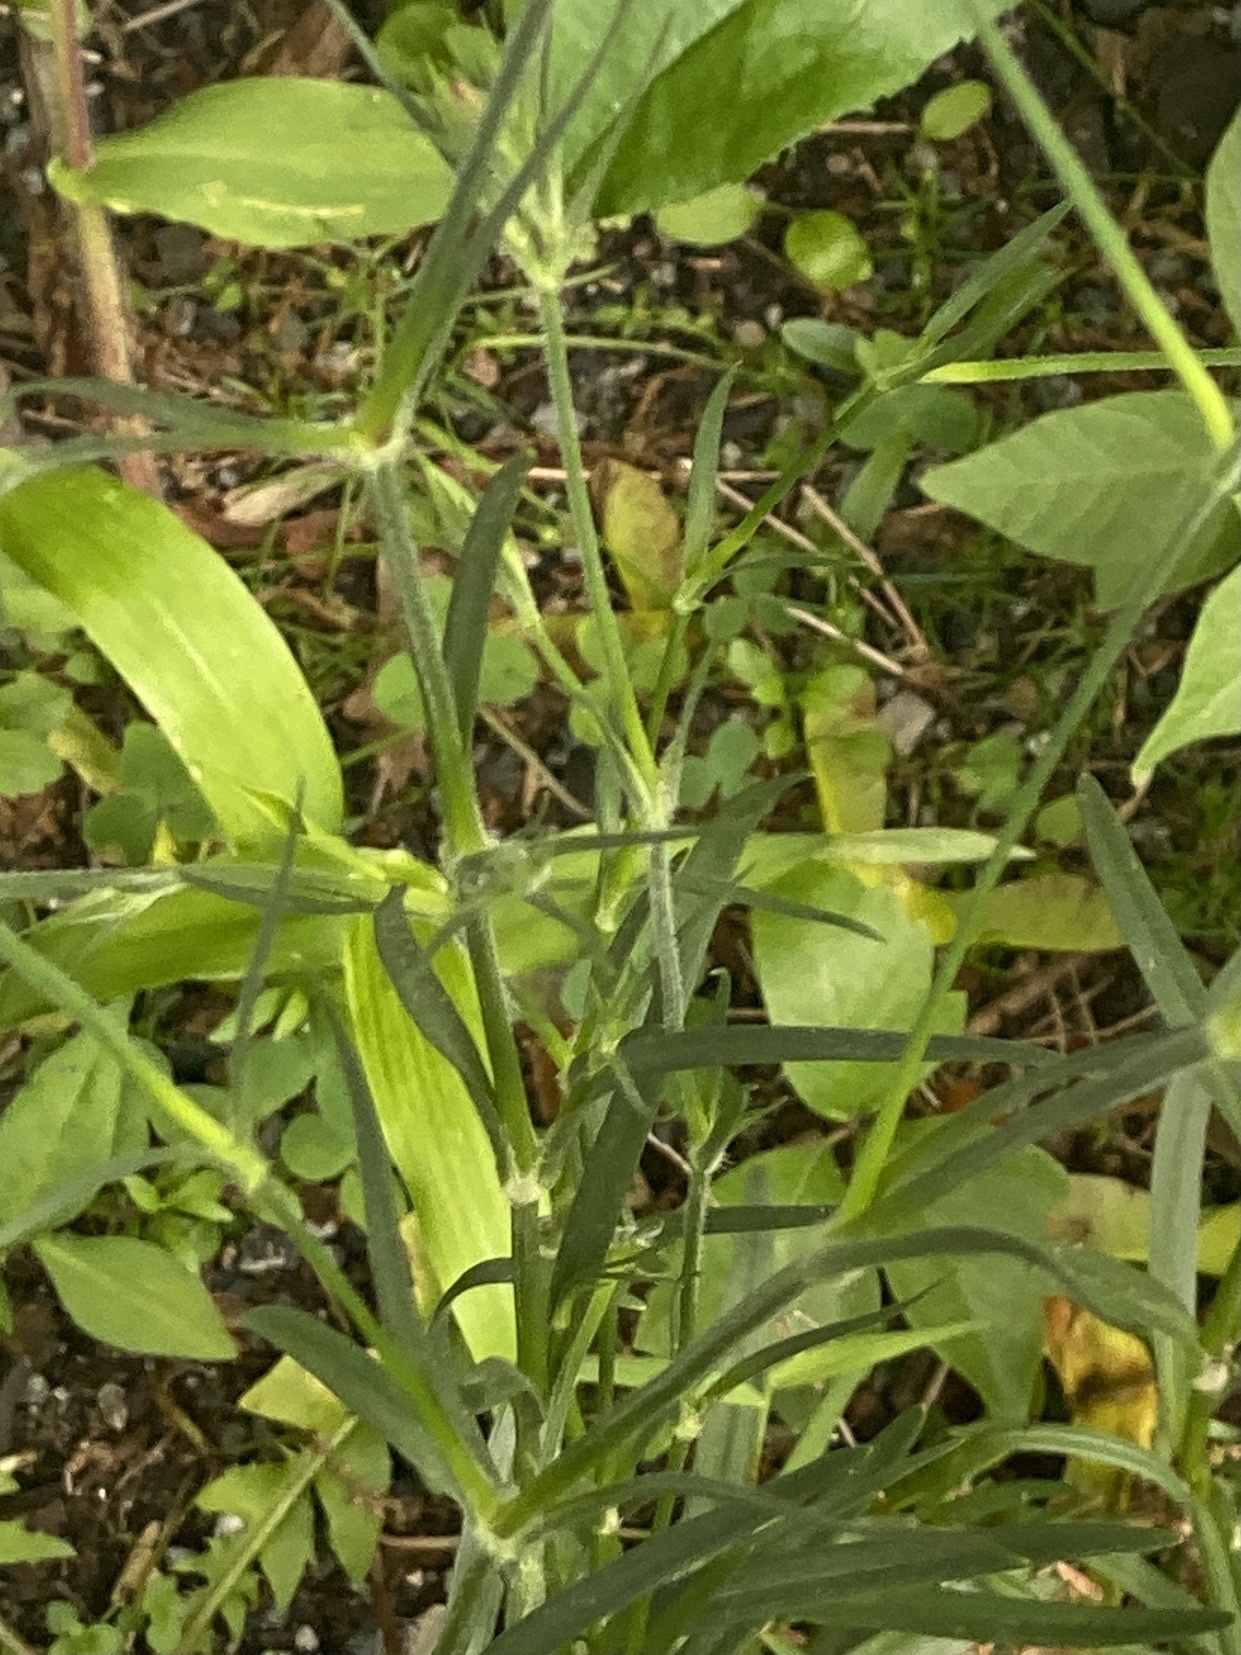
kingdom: Plantae
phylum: Tracheophyta
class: Magnoliopsida
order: Caryophyllales
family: Caryophyllaceae
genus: Dianthus
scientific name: Dianthus armeria
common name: Deptford pink
